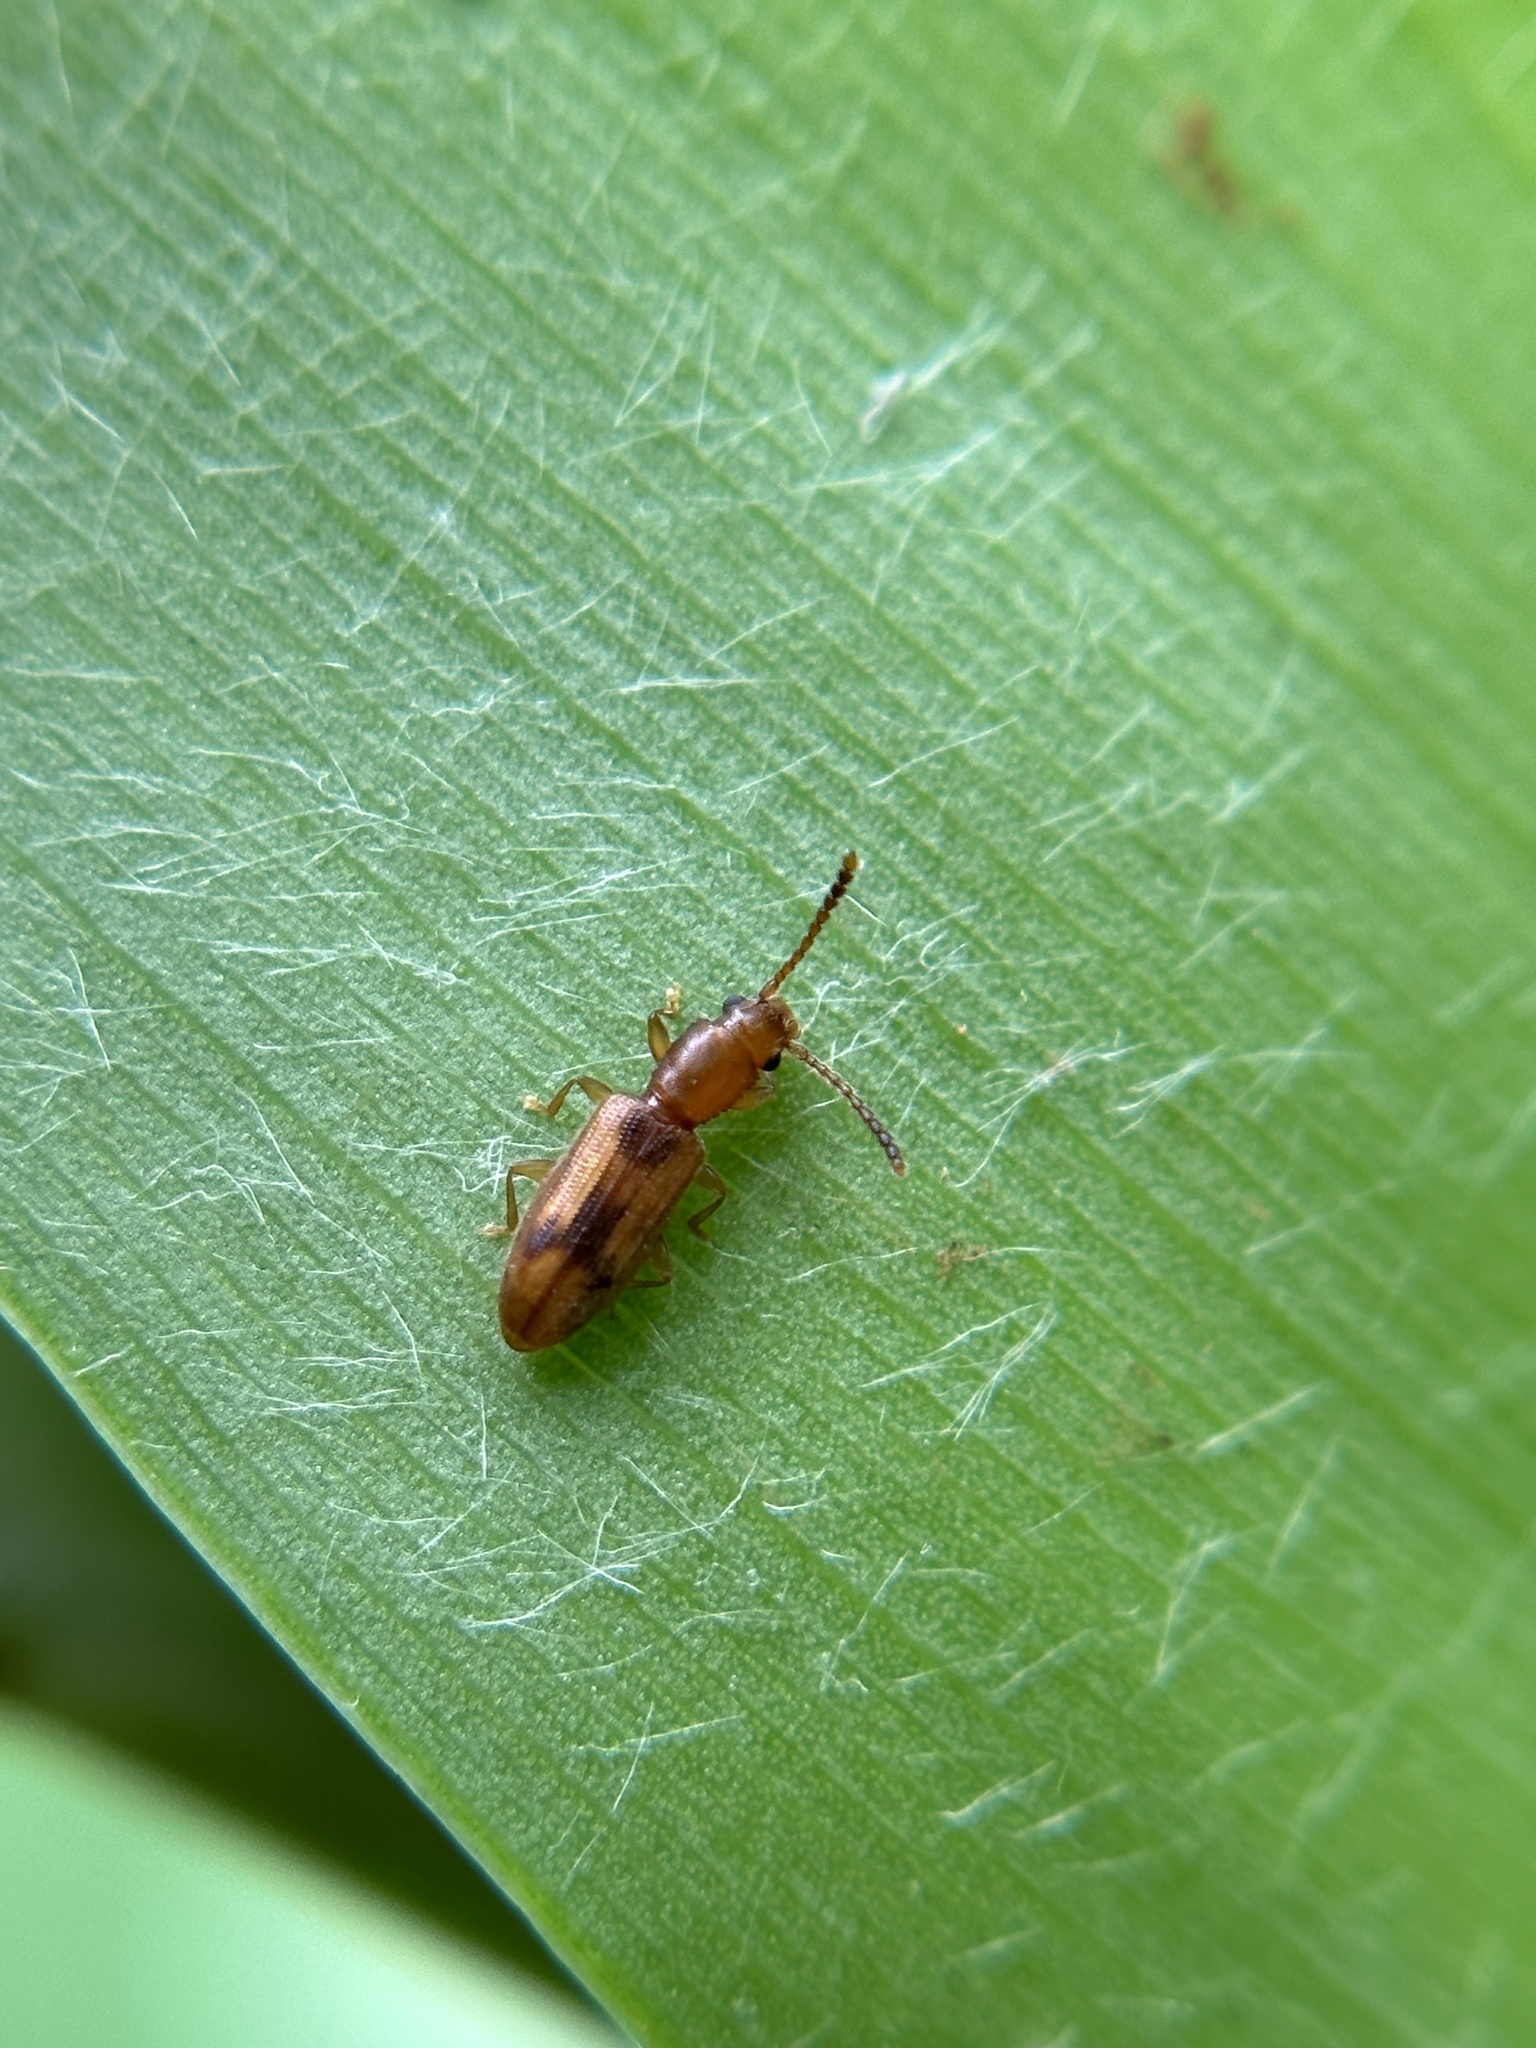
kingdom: Animalia
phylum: Arthropoda
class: Insecta
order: Coleoptera
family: Silvanidae
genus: Cryptamorpha
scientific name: Cryptamorpha desjardinsi
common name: Cryptamorpha
